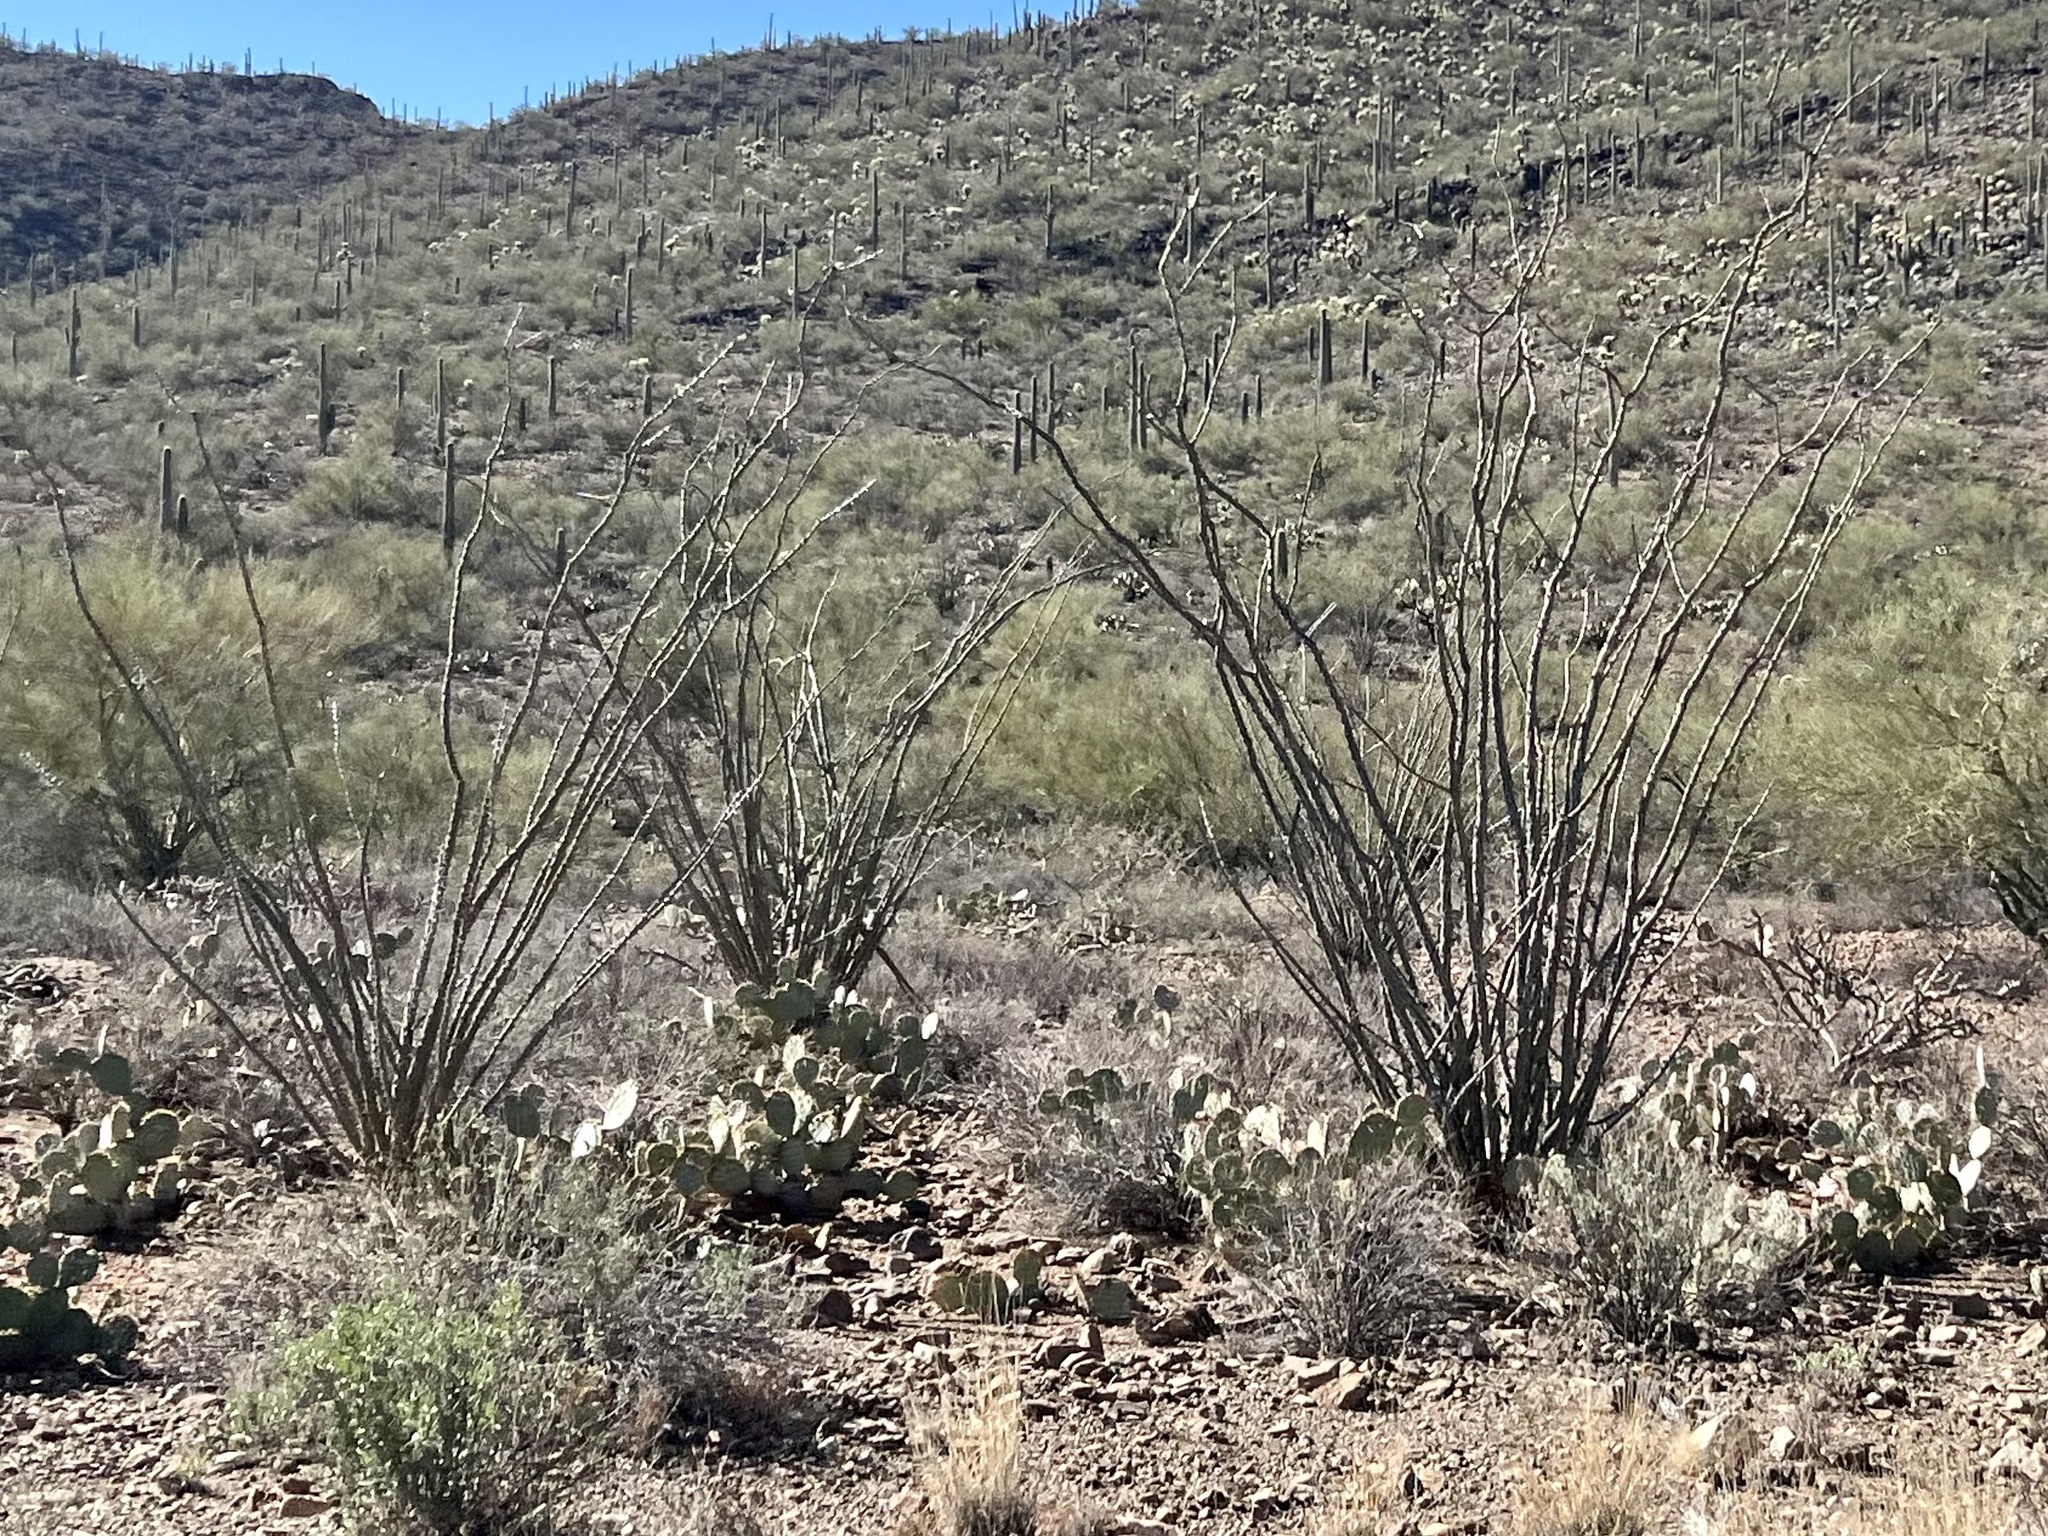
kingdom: Plantae
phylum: Tracheophyta
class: Magnoliopsida
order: Ericales
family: Fouquieriaceae
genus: Fouquieria
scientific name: Fouquieria splendens
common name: Vine-cactus
